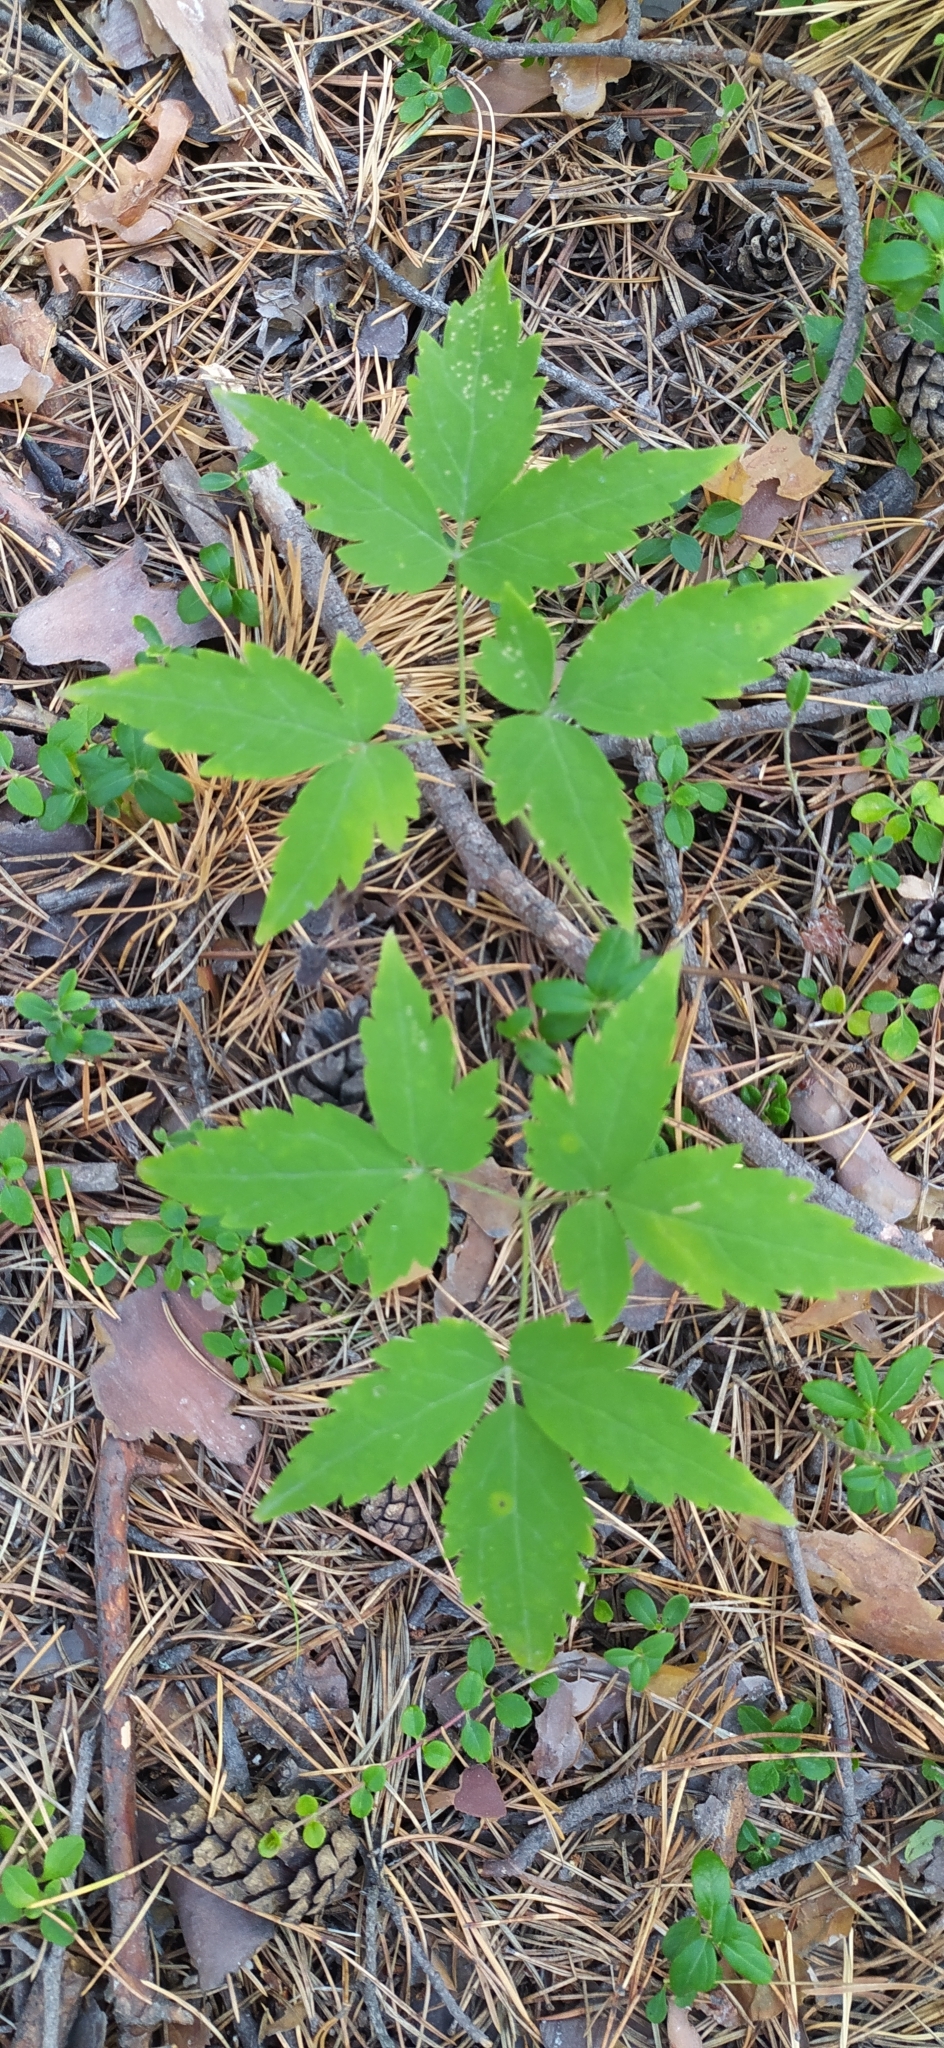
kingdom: Plantae
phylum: Tracheophyta
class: Magnoliopsida
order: Ranunculales
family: Ranunculaceae
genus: Clematis
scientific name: Clematis sibirica
